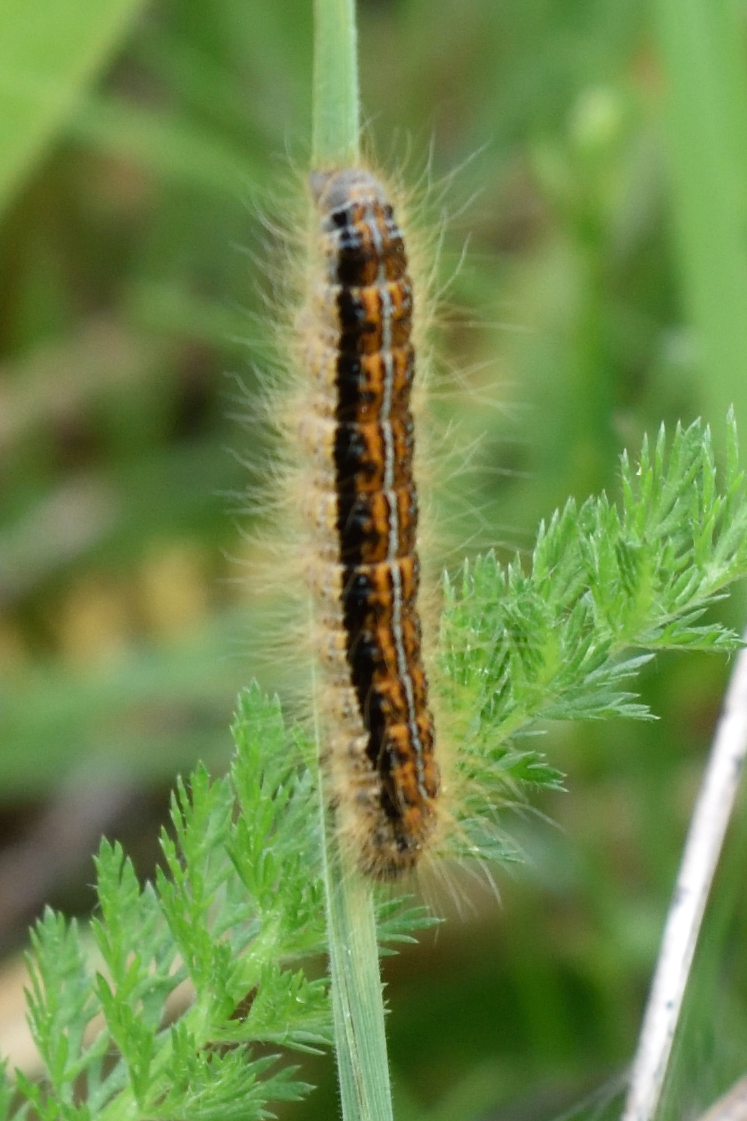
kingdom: Animalia
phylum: Arthropoda
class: Insecta
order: Lepidoptera
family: Lasiocampidae
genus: Malacosoma
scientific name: Malacosoma castrense
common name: Ground lackey
